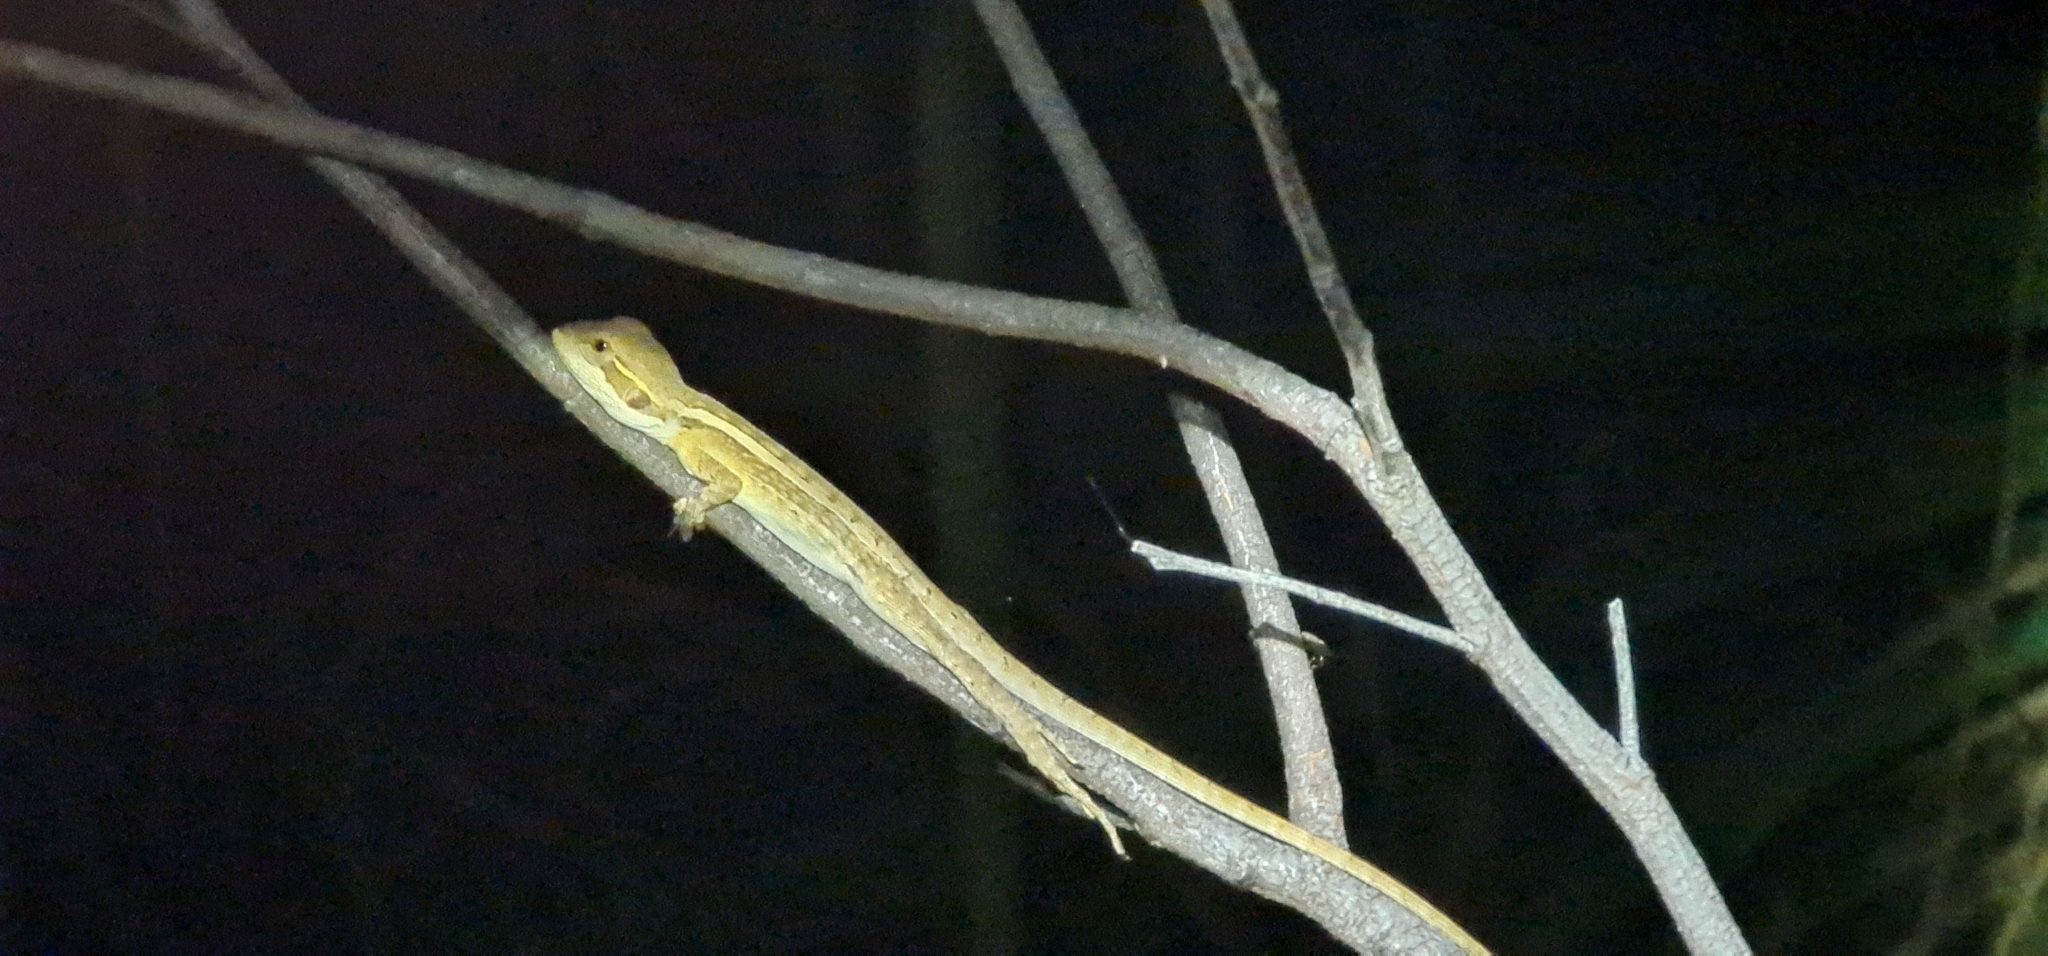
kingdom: Animalia
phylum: Chordata
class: Squamata
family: Agamidae
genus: Lophognathus
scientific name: Lophognathus gilberti
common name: Gilbert's dragon
